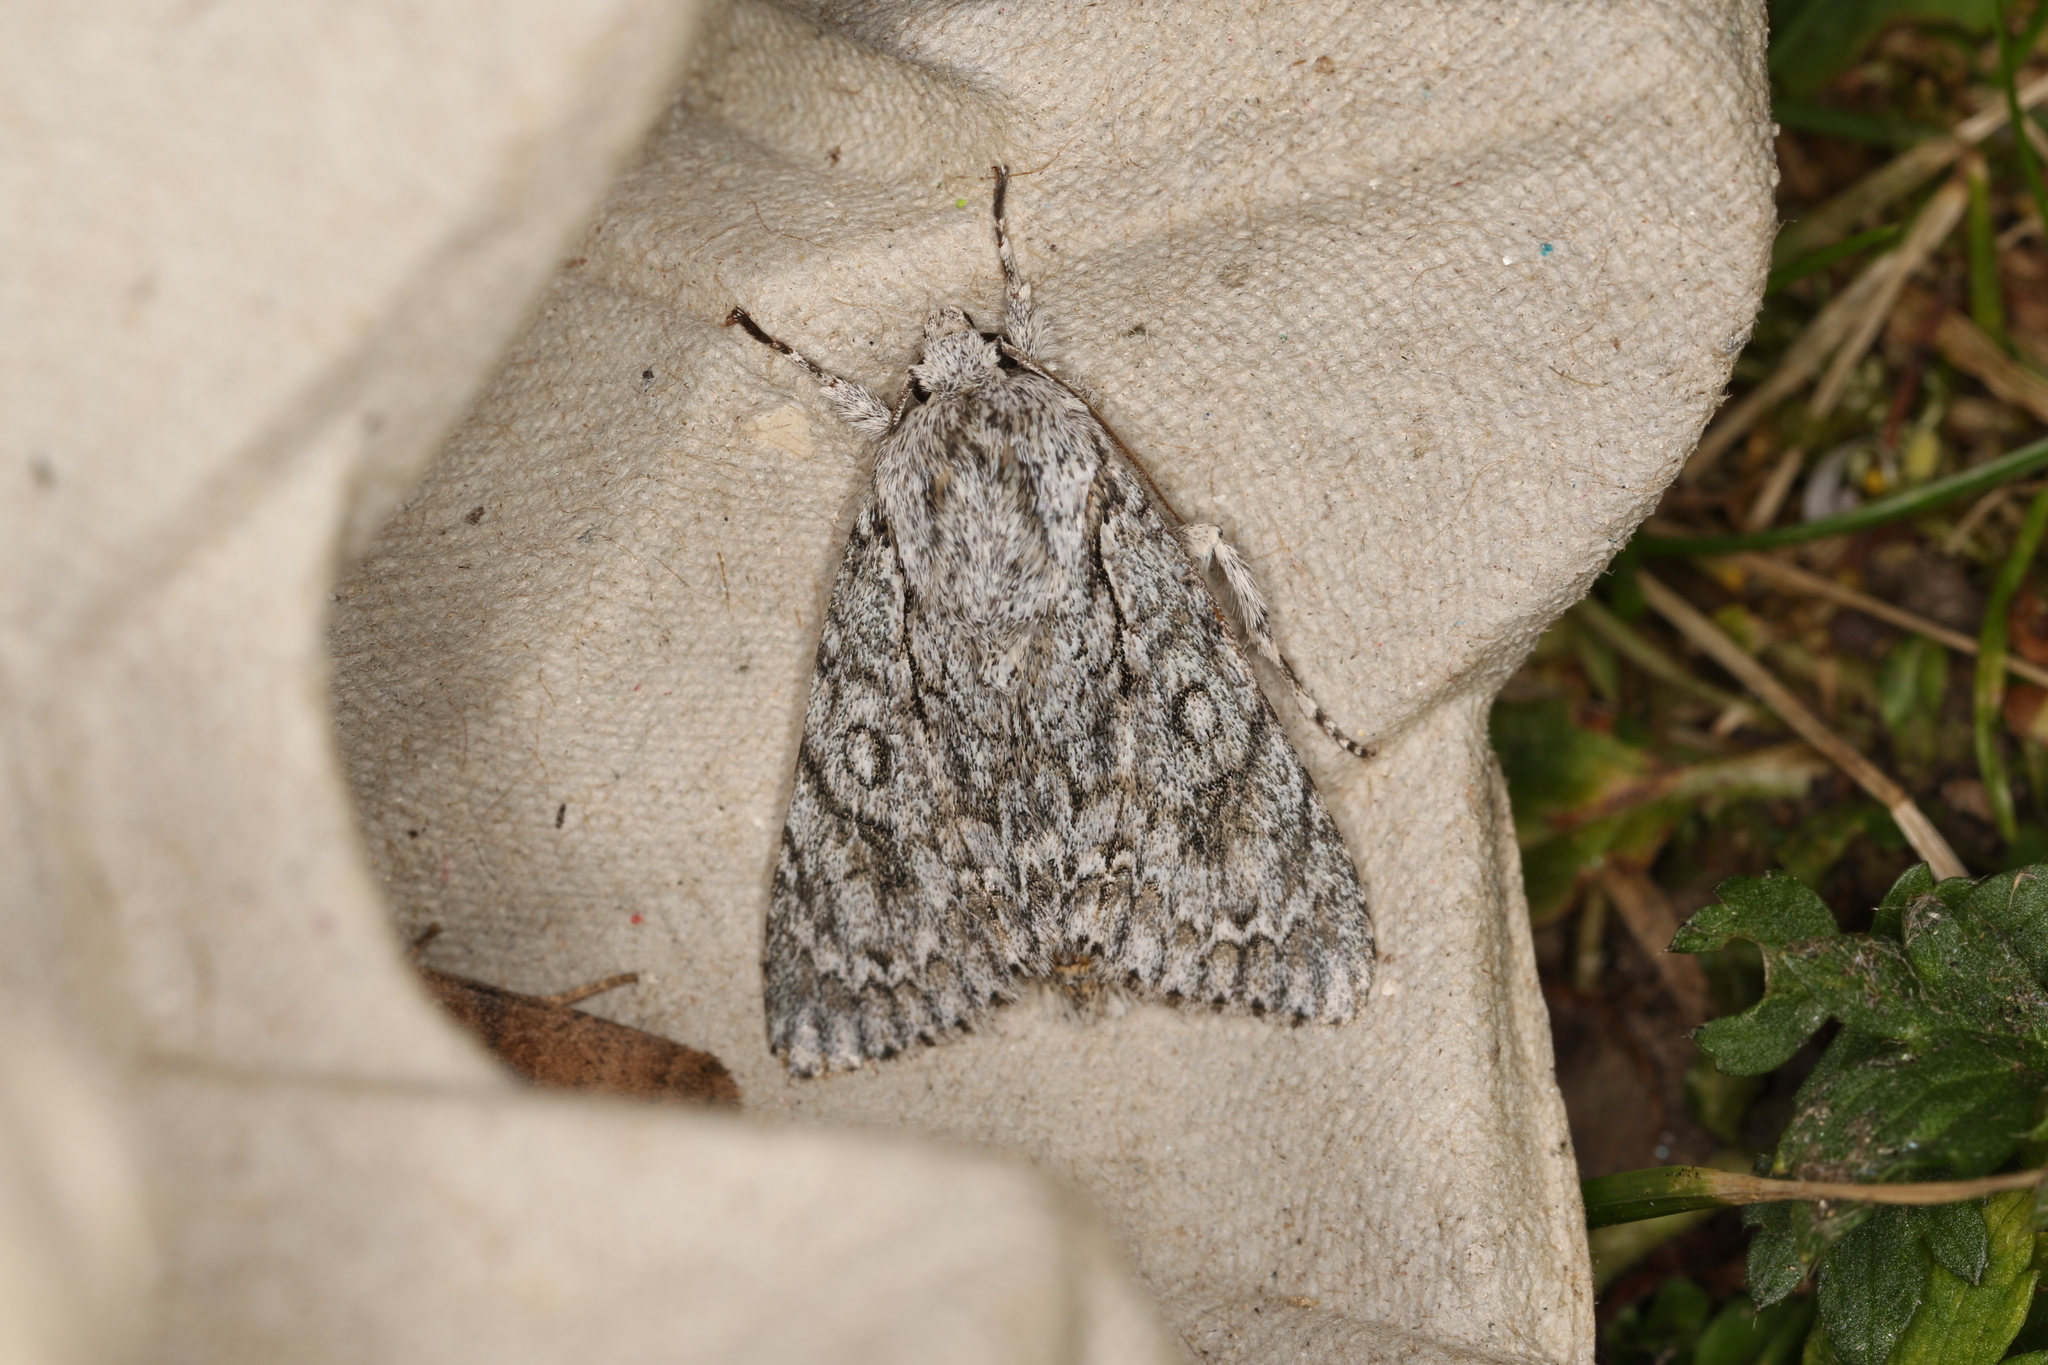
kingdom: Animalia
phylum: Arthropoda
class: Insecta
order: Lepidoptera
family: Noctuidae
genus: Acronicta
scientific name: Acronicta aceris
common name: Sycamore
